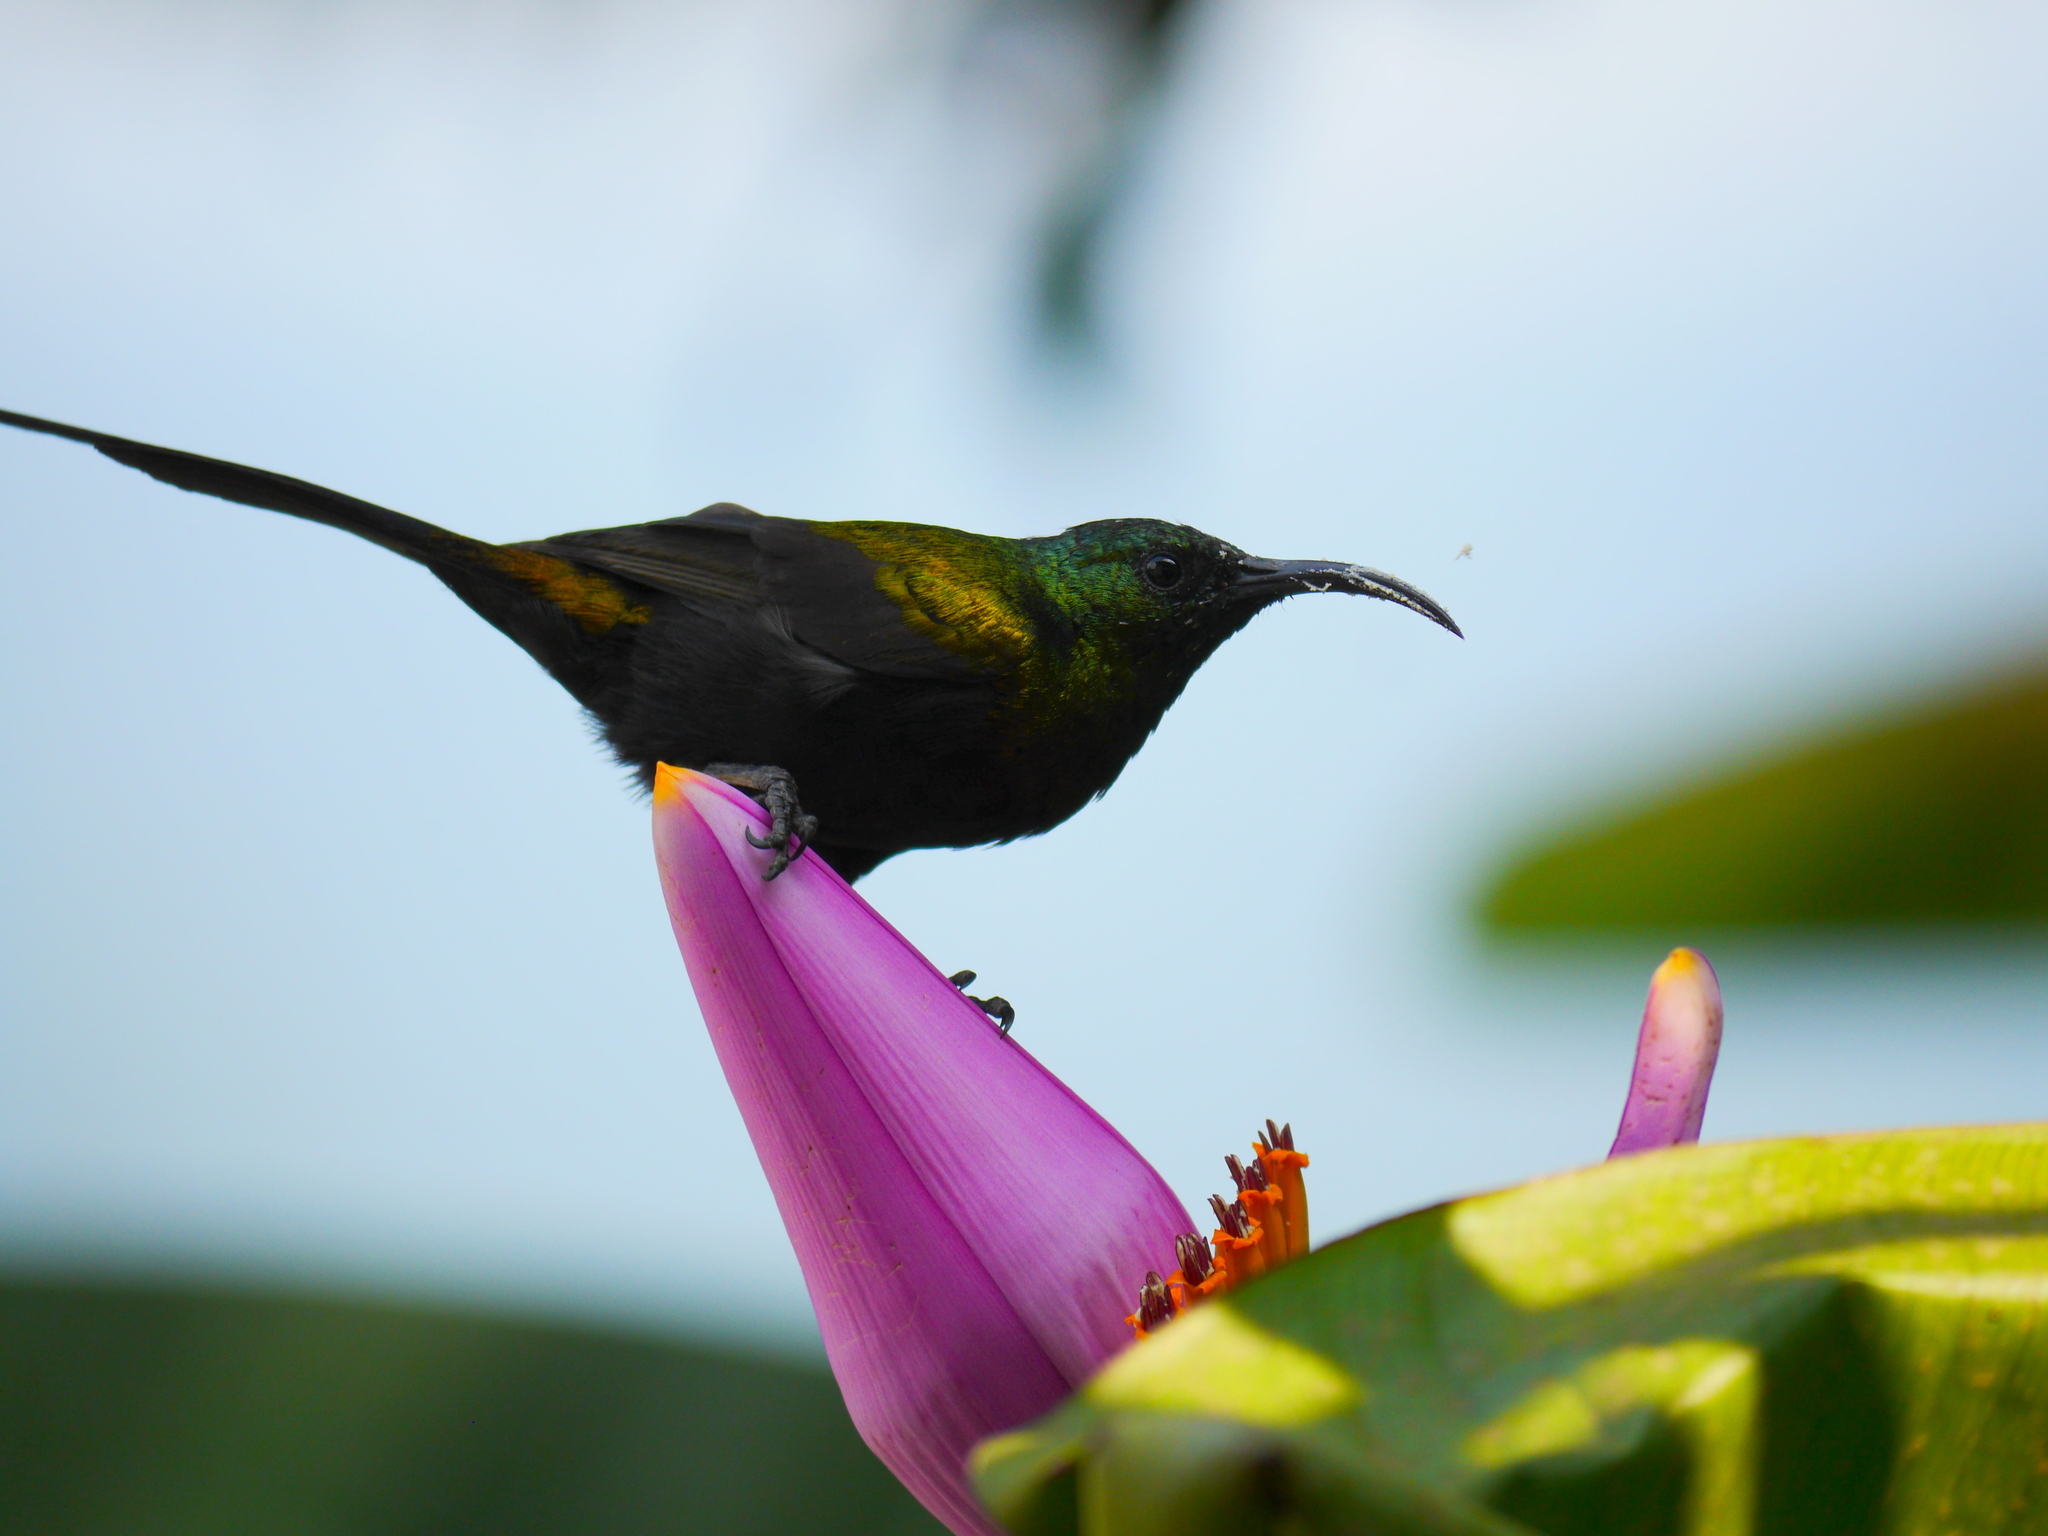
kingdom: Animalia
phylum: Chordata
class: Aves
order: Passeriformes
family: Nectariniidae
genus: Nectarinia
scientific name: Nectarinia kilimensis
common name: Bronzy sunbird
